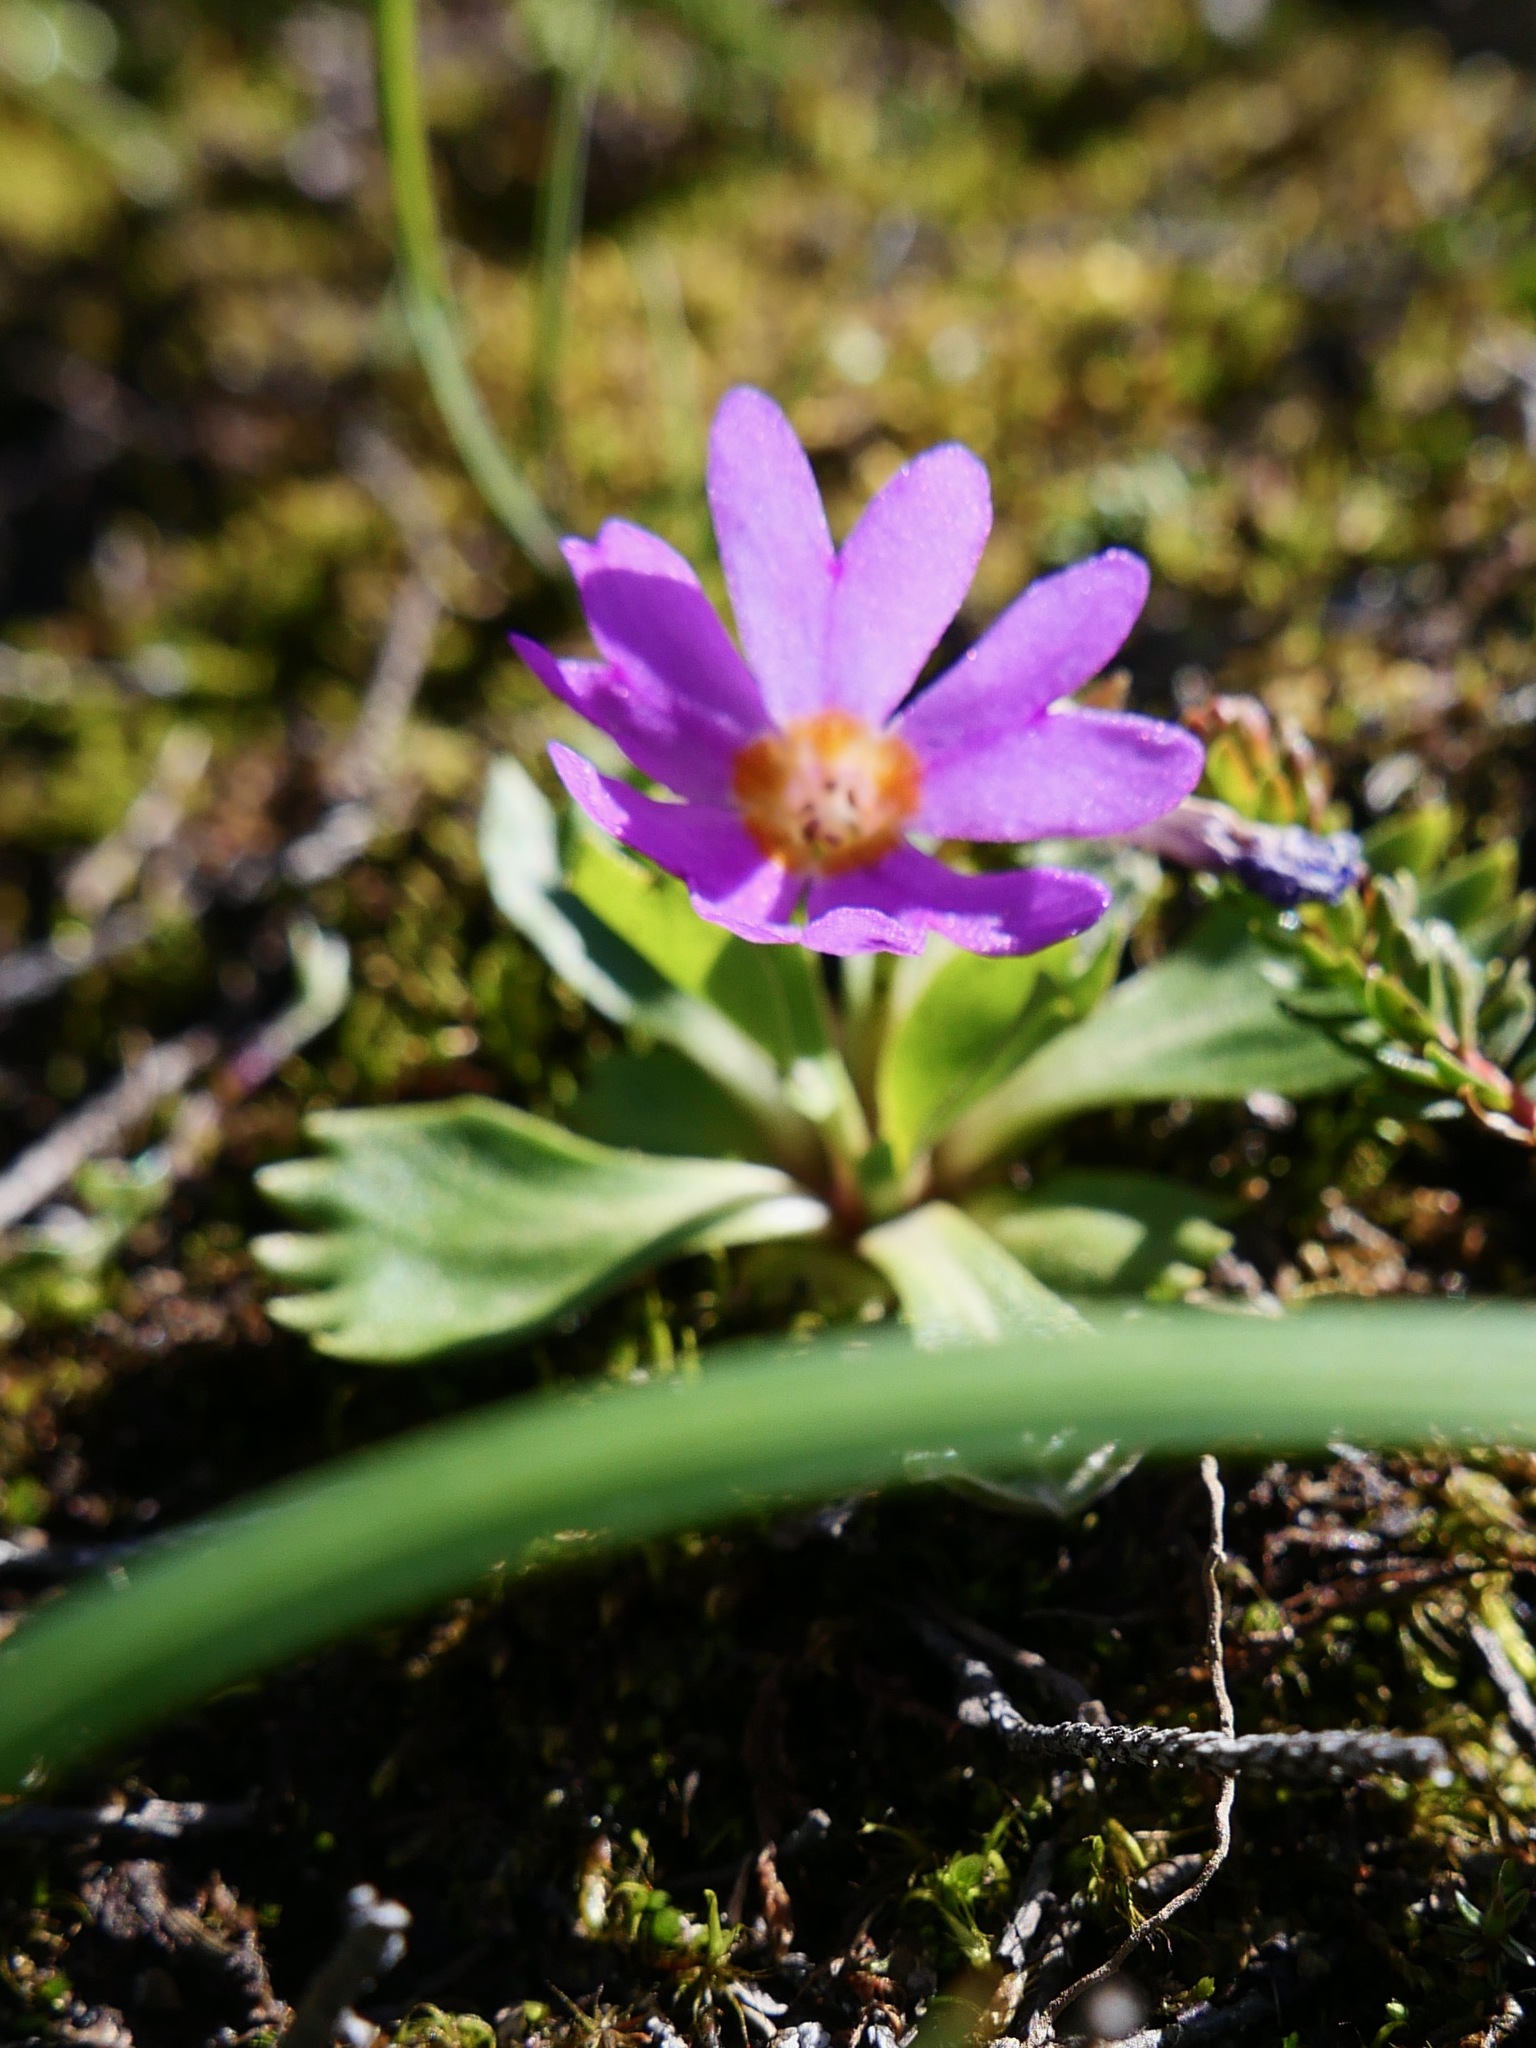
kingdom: Plantae
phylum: Tracheophyta
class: Magnoliopsida
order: Ericales
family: Primulaceae
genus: Primula
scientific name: Primula cuneifolia
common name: Wedge-leaved primrose
